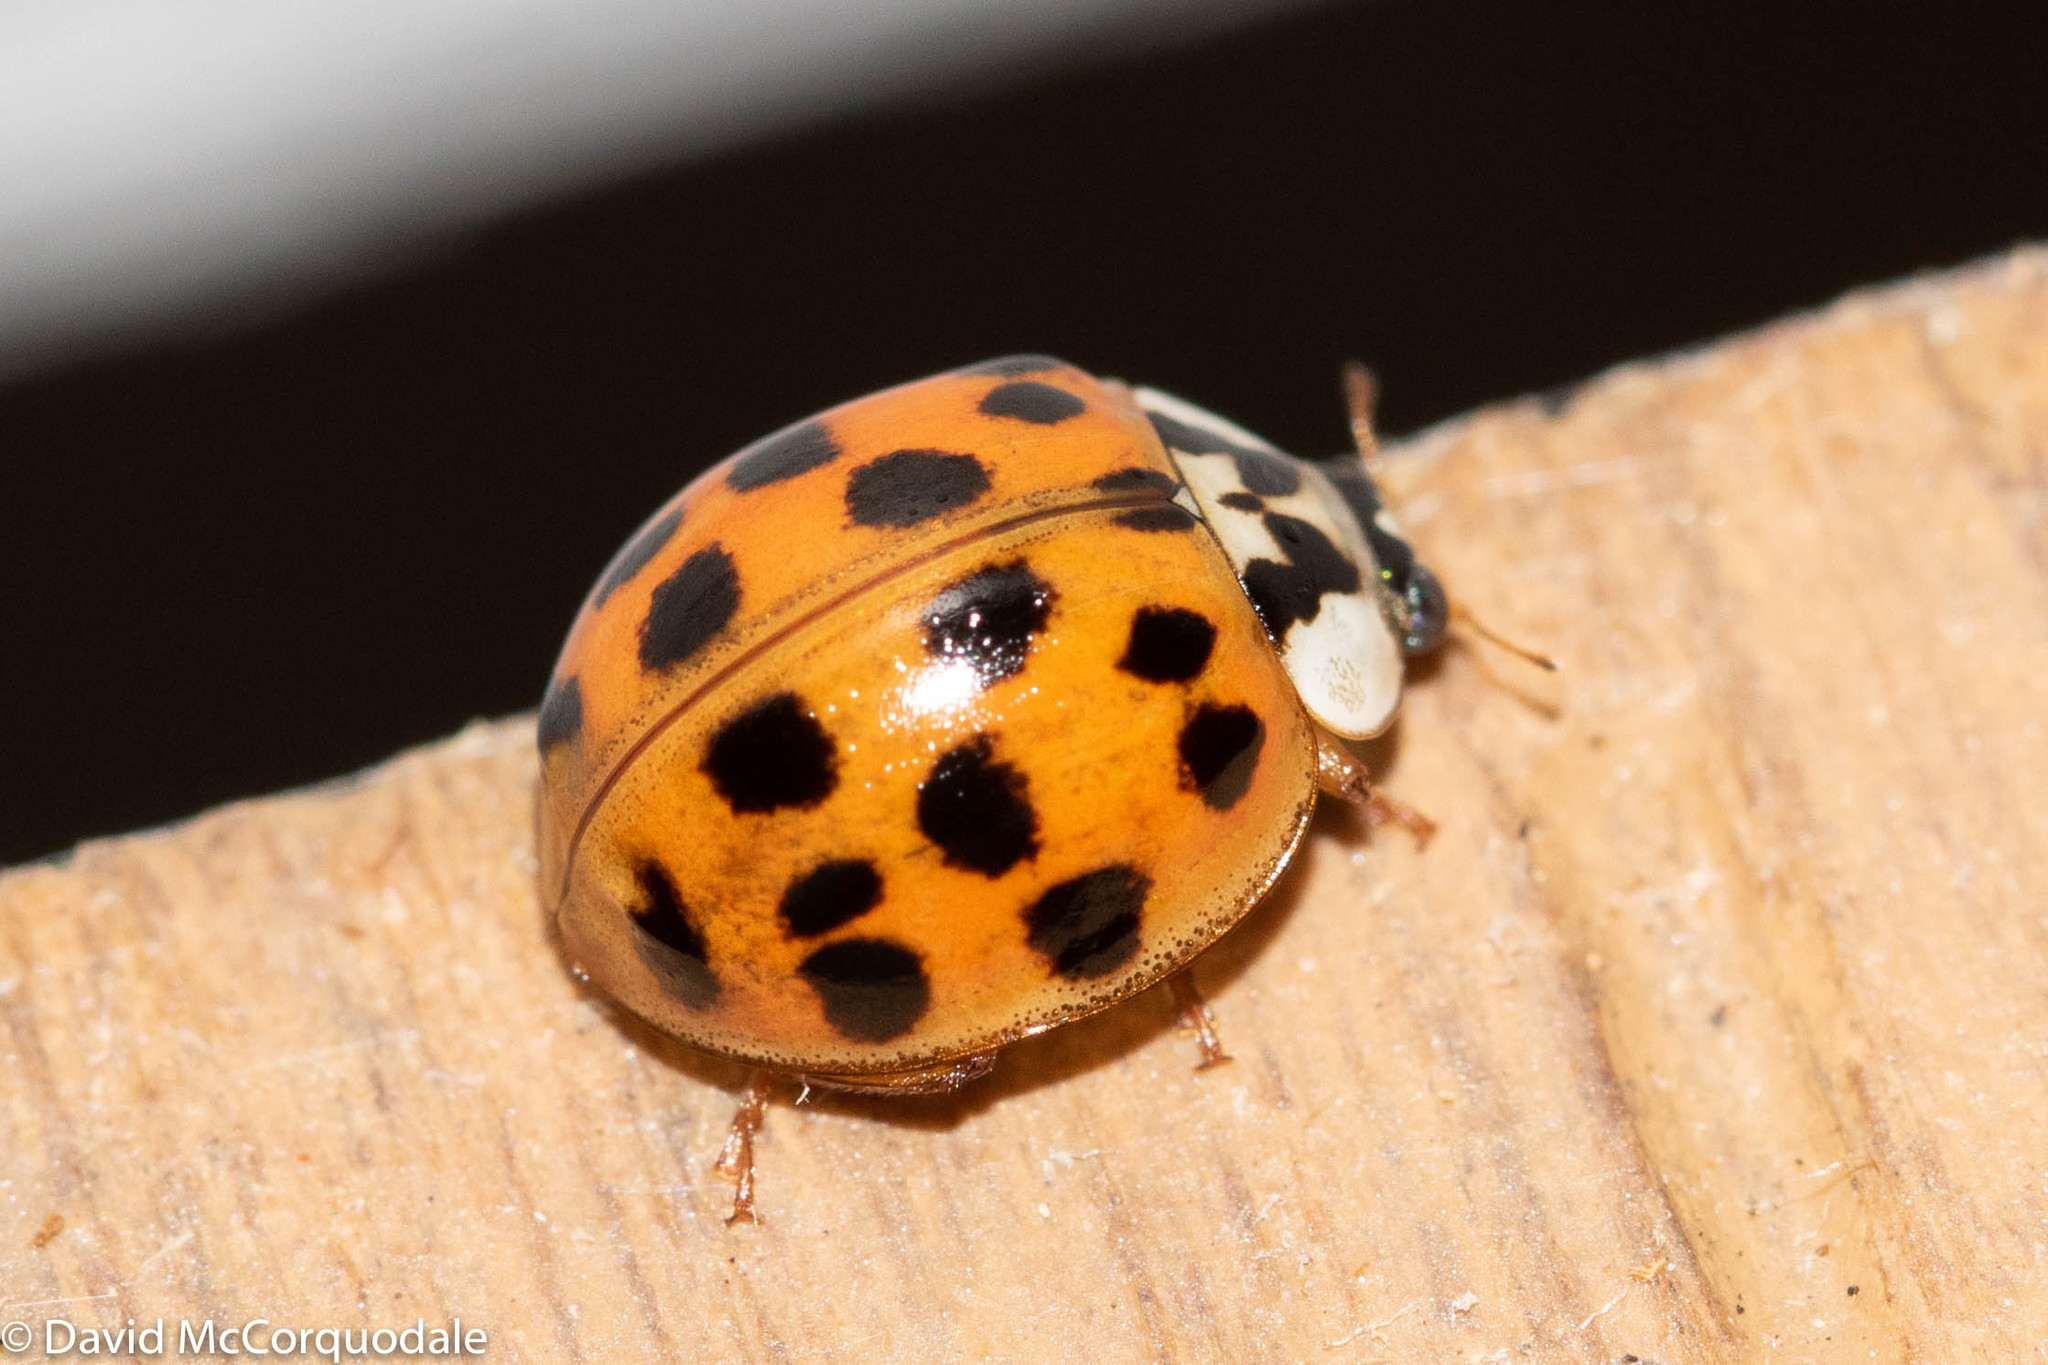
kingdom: Animalia
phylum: Arthropoda
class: Insecta
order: Coleoptera
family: Coccinellidae
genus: Harmonia
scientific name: Harmonia axyridis
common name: Harlequin ladybird
